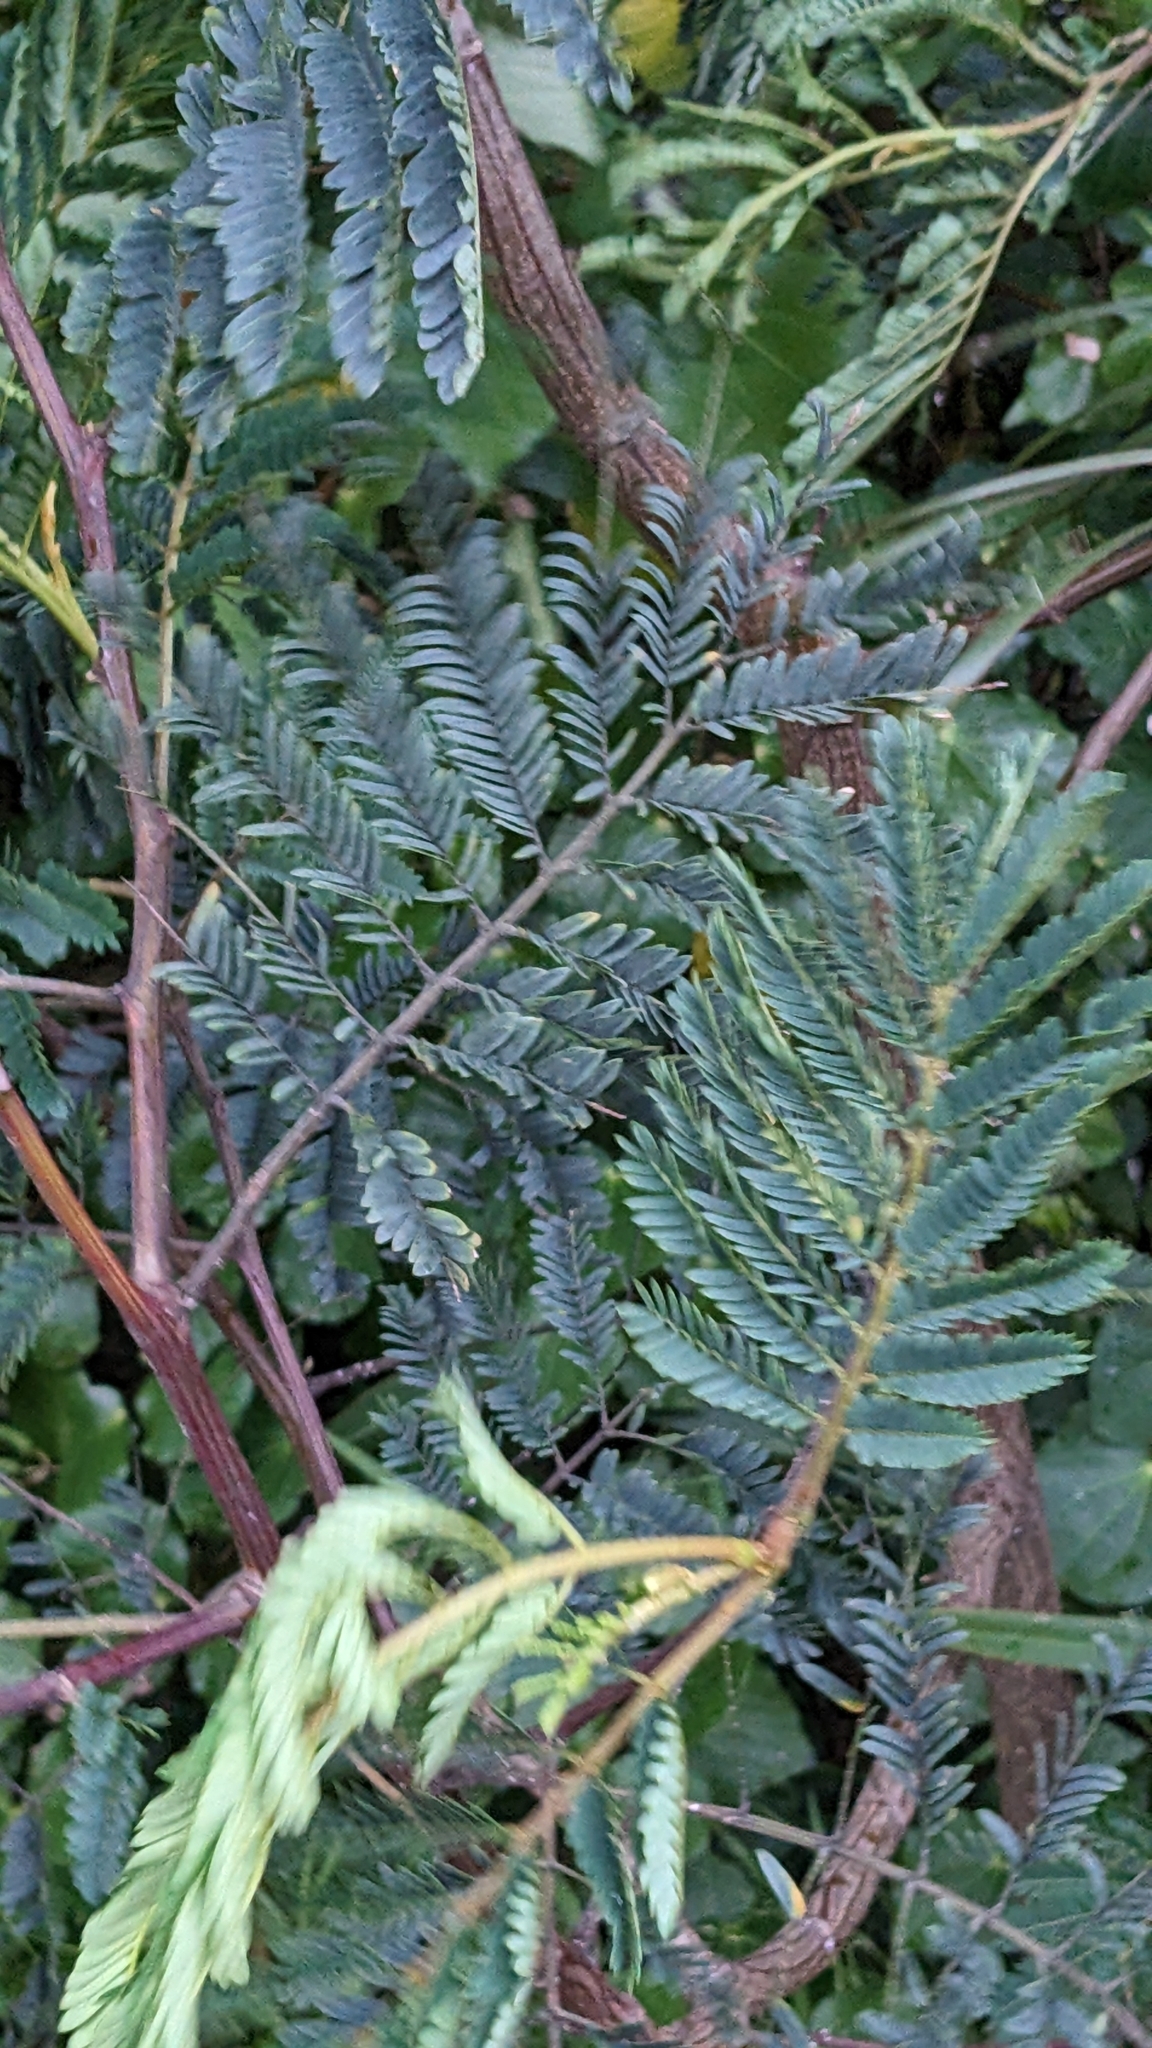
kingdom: Plantae
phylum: Tracheophyta
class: Magnoliopsida
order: Fabales
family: Fabaceae
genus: Paraserianthes
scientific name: Paraserianthes lophantha
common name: Plume albizia
